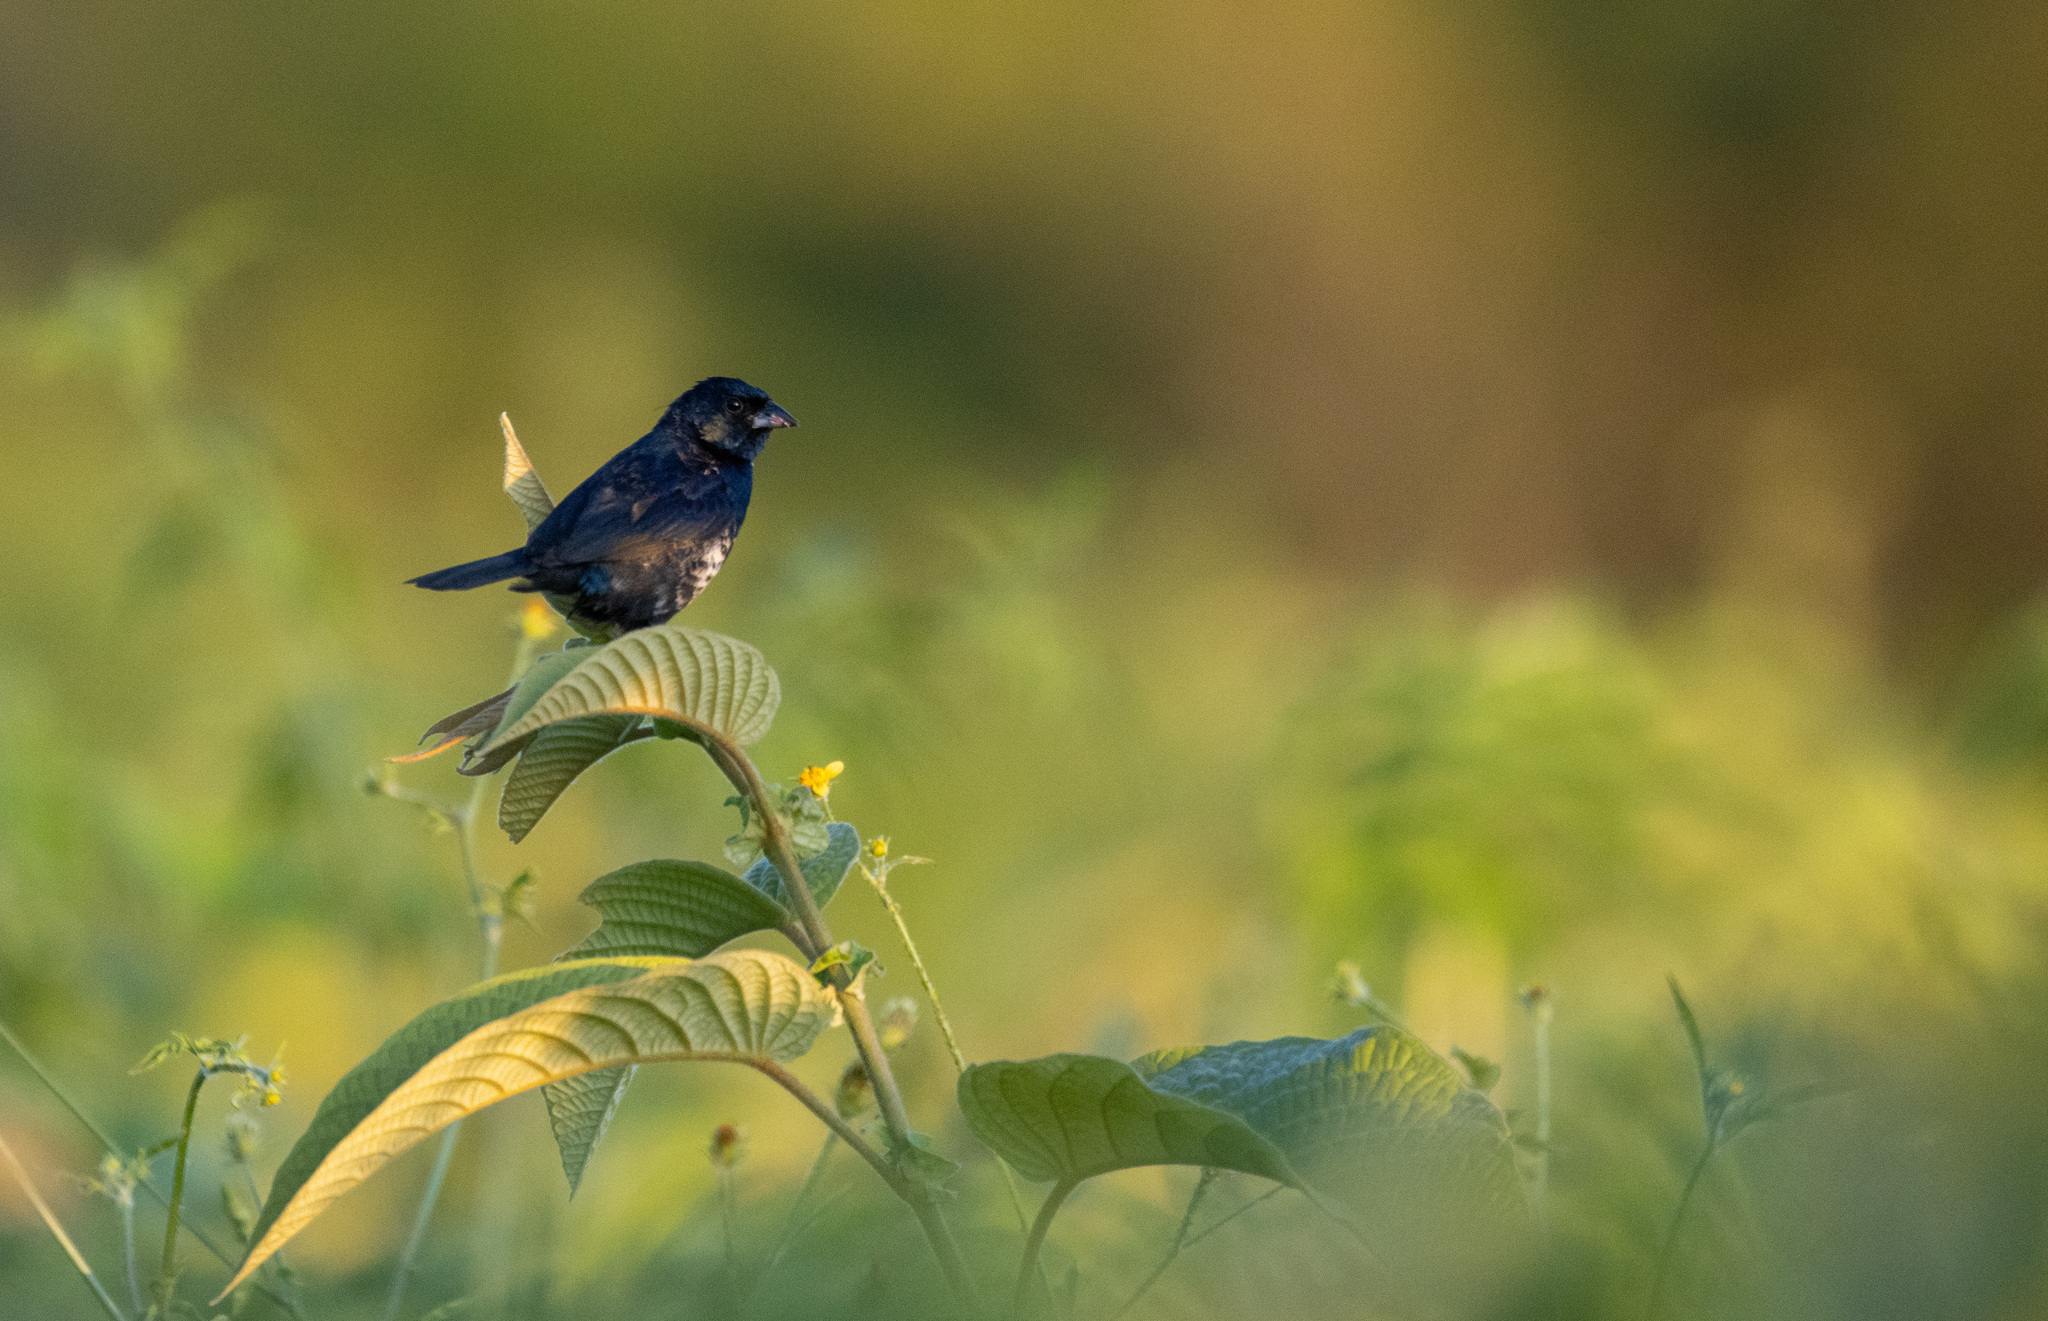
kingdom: Animalia
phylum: Chordata
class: Aves
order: Passeriformes
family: Thraupidae
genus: Volatinia
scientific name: Volatinia jacarina
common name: Blue-black grassquit
